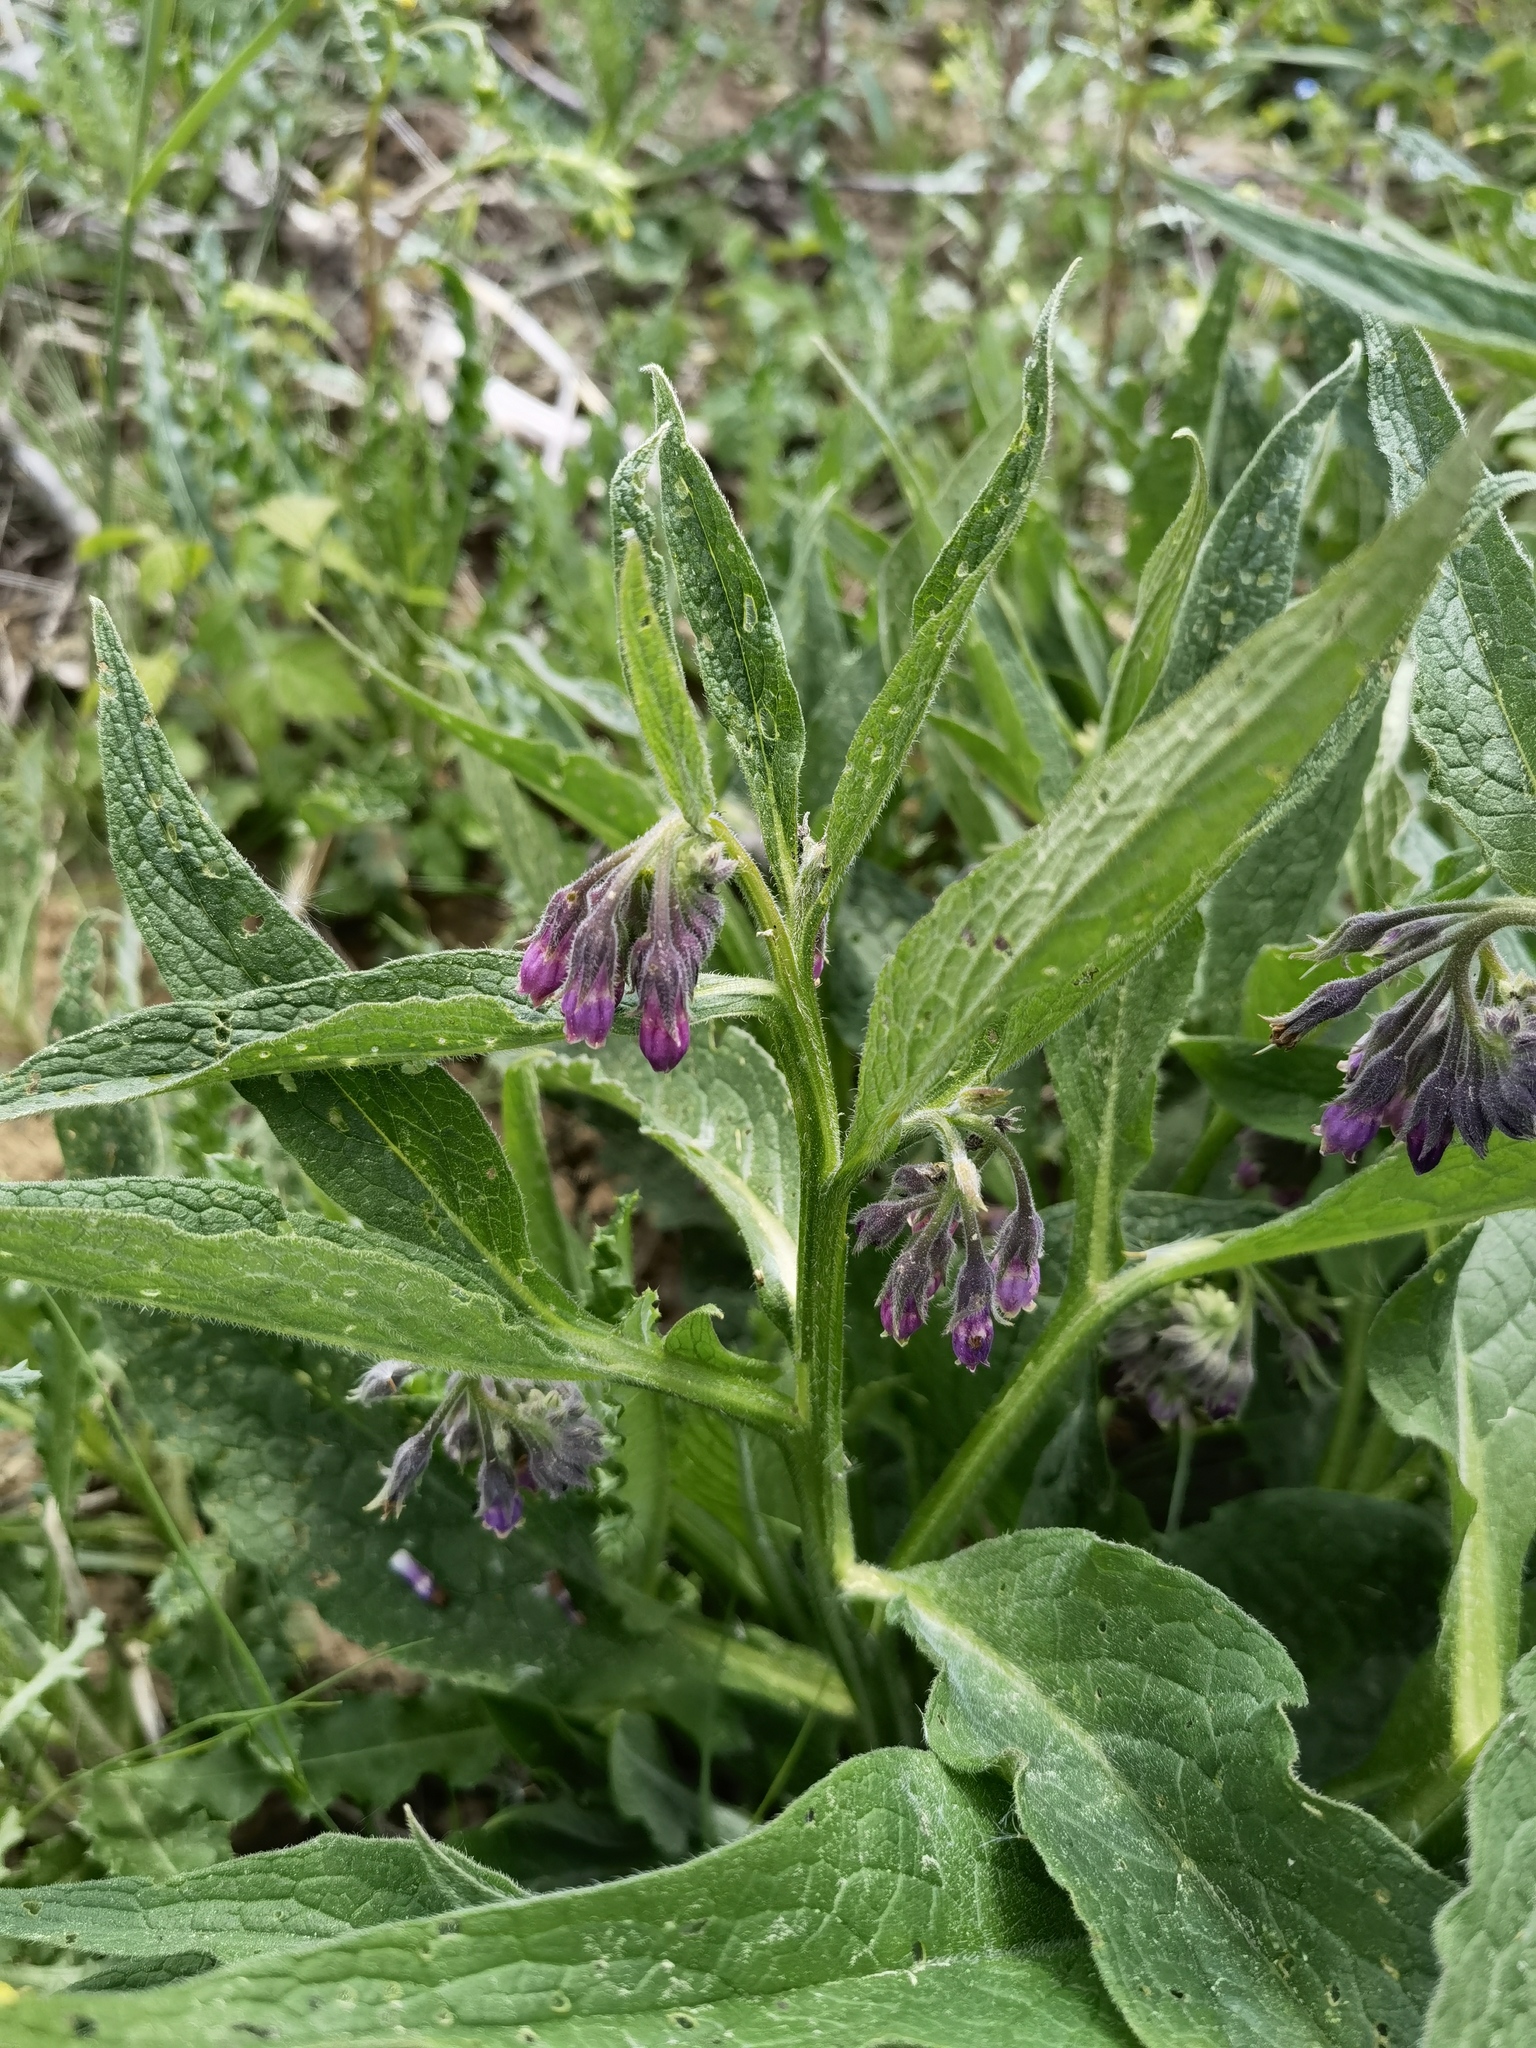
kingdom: Plantae
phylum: Tracheophyta
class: Magnoliopsida
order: Boraginales
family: Boraginaceae
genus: Symphytum
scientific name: Symphytum officinale
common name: Common comfrey
